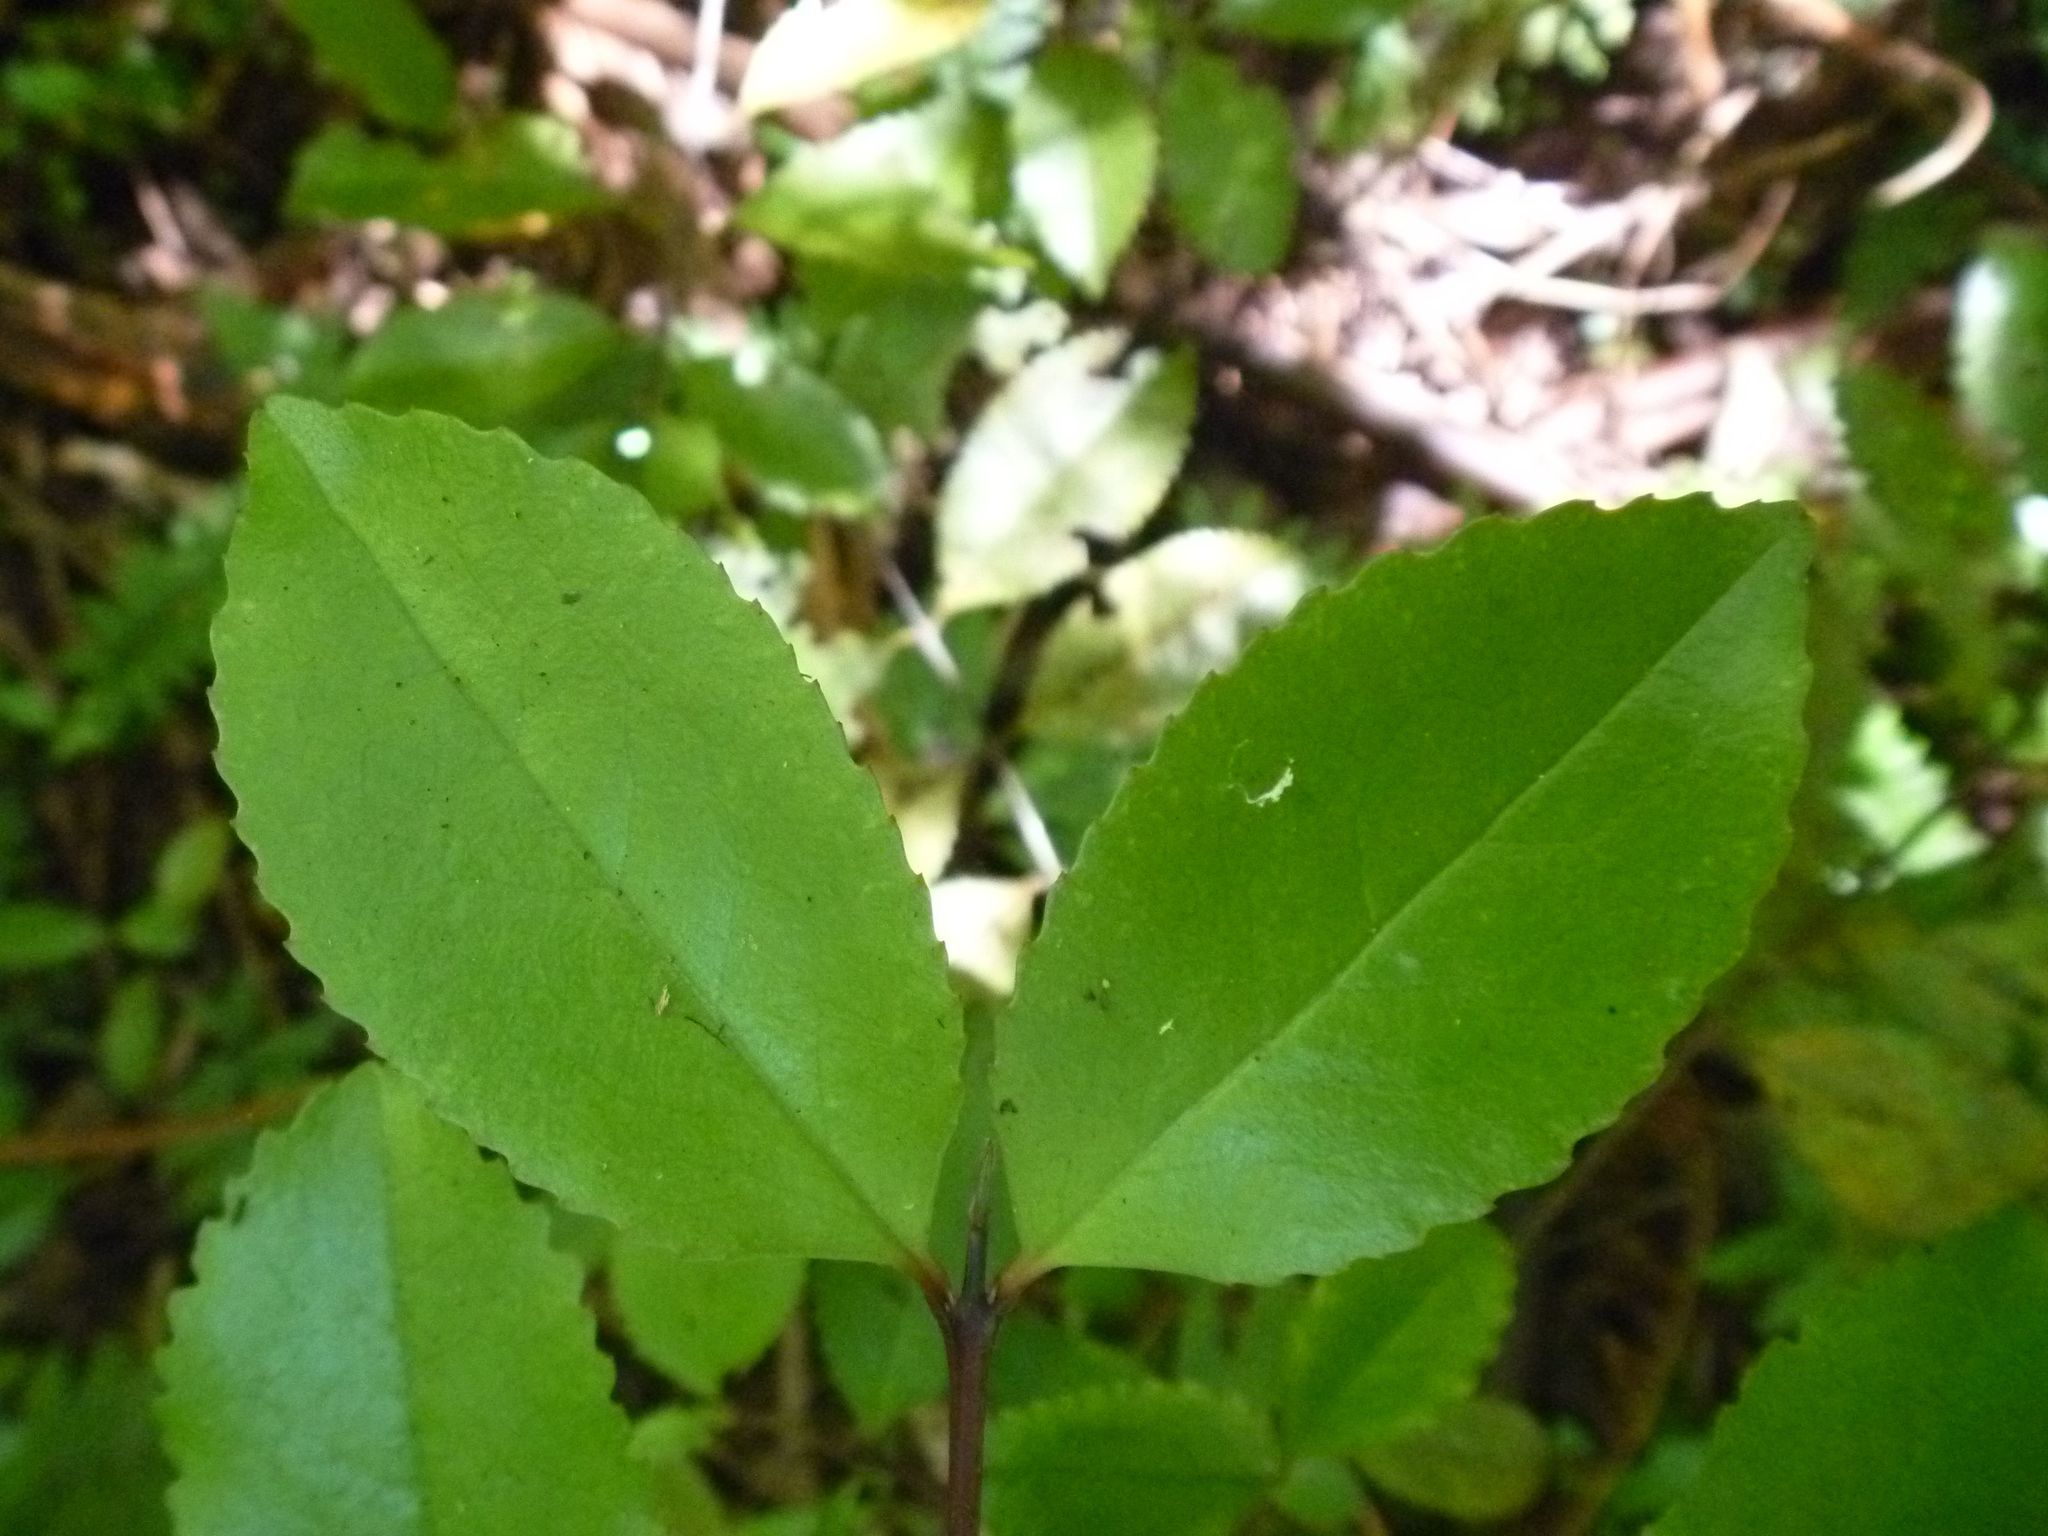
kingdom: Plantae
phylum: Tracheophyta
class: Magnoliopsida
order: Laurales
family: Atherospermataceae
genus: Laurelia
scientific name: Laurelia novae-zelandiae
